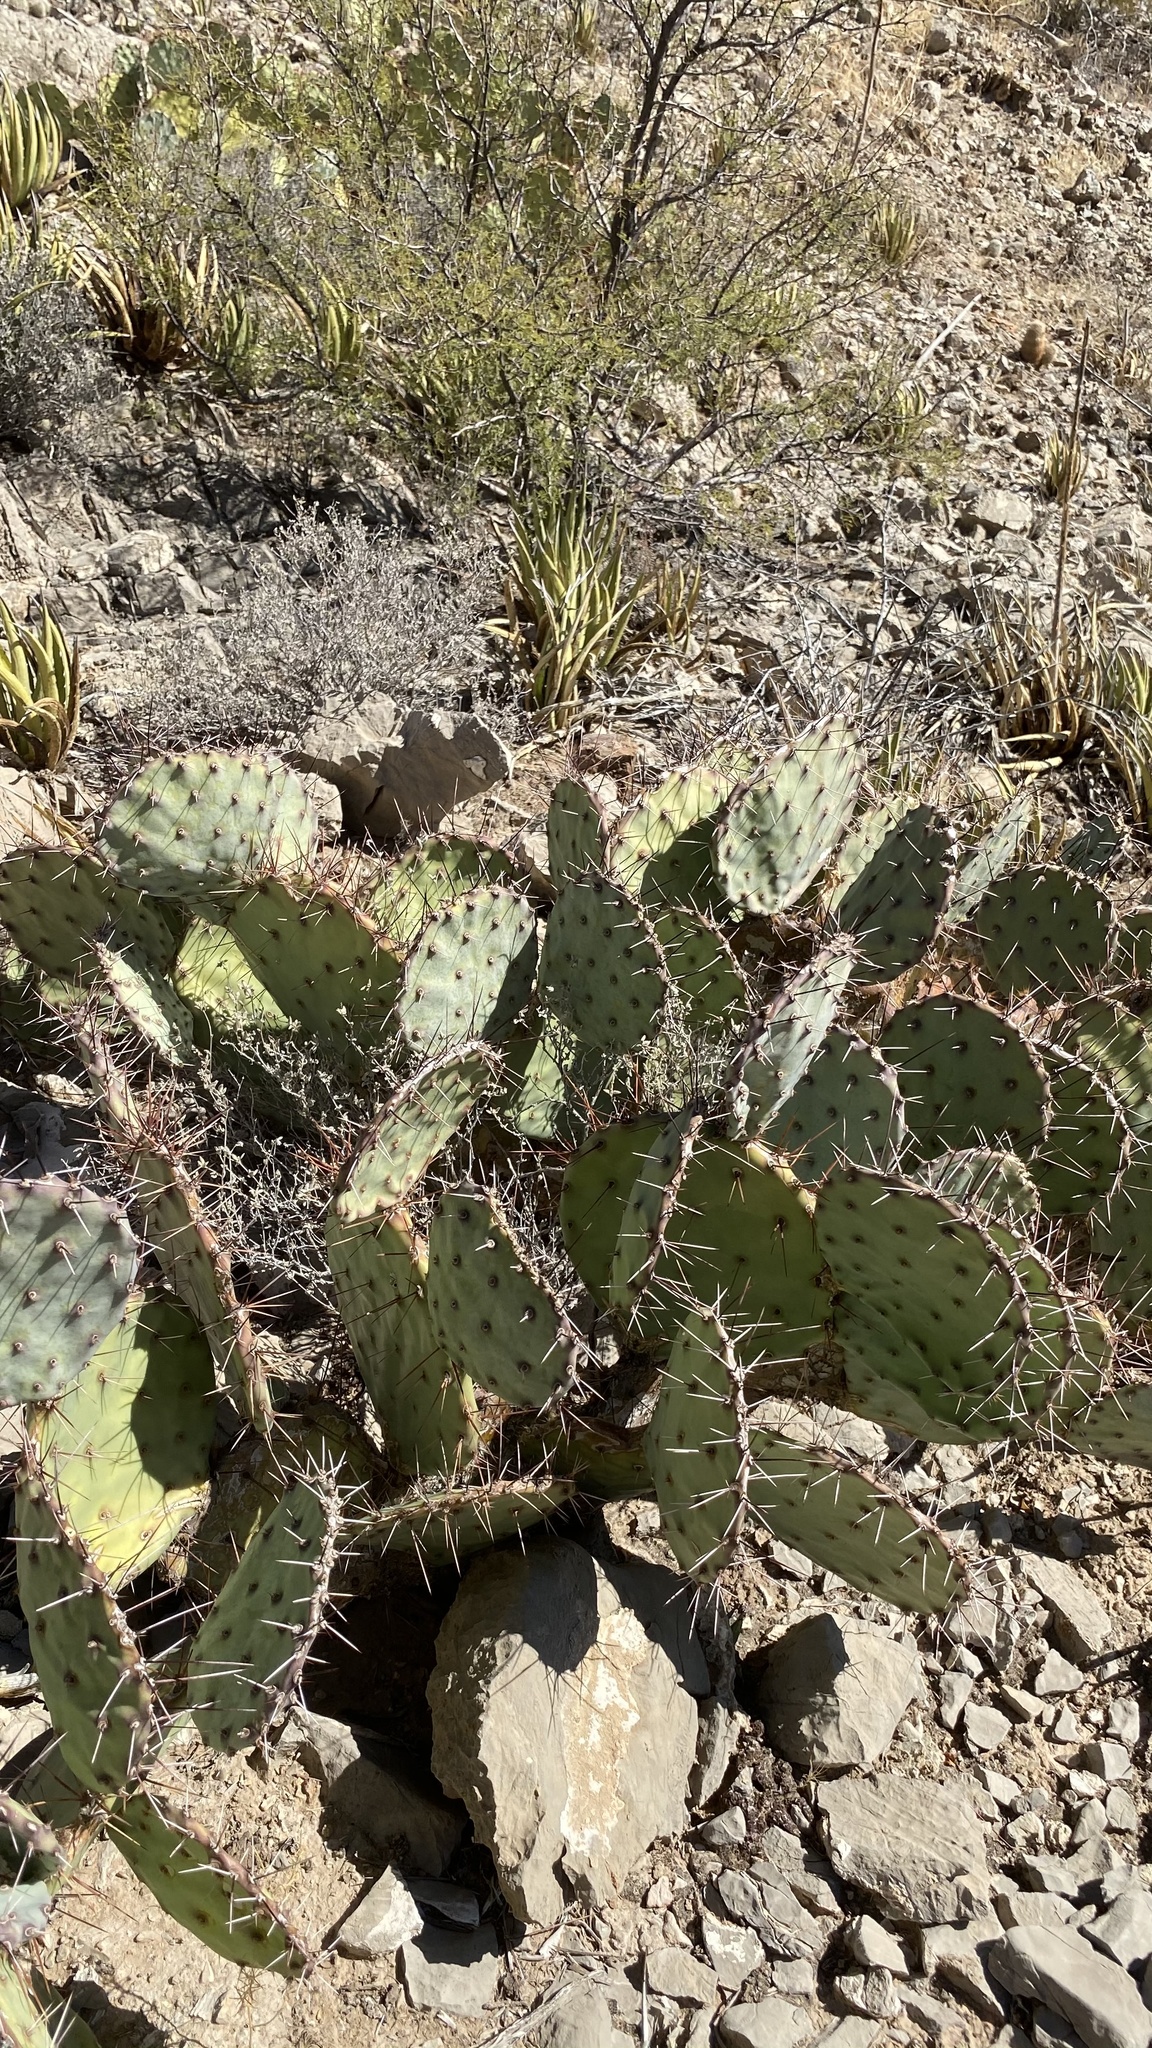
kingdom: Plantae
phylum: Tracheophyta
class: Magnoliopsida
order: Caryophyllales
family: Cactaceae
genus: Opuntia
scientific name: Opuntia phaeacantha
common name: New mexico prickly-pear
